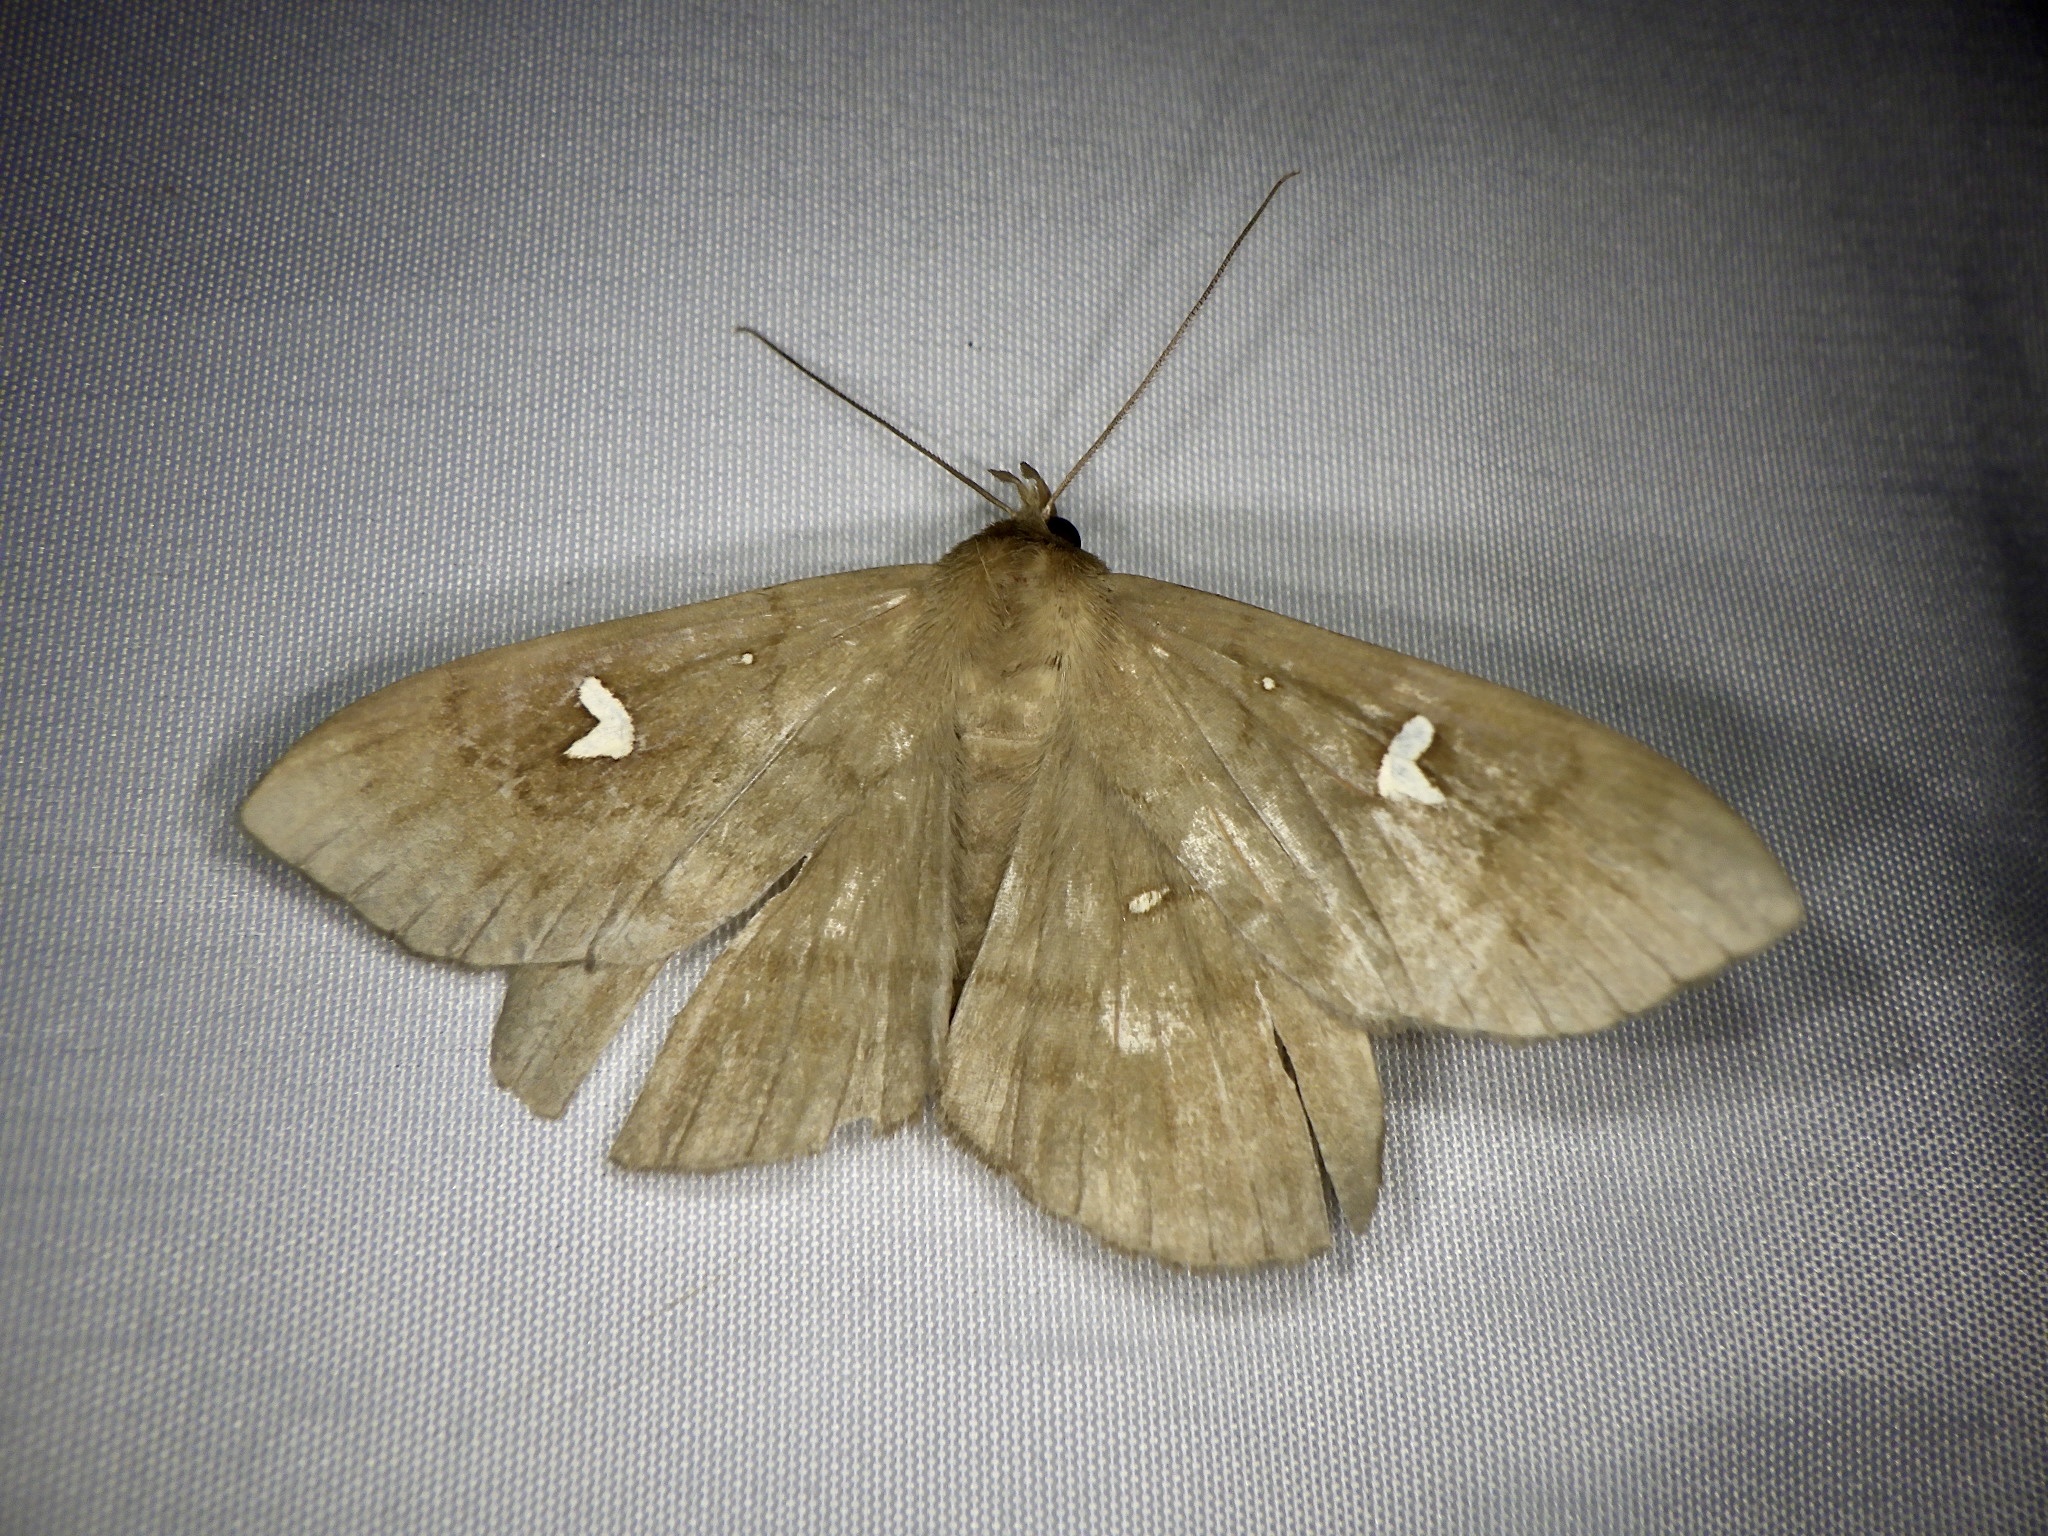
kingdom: Animalia
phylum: Arthropoda
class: Insecta
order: Lepidoptera
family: Erebidae
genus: Edessena
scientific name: Edessena hamada
